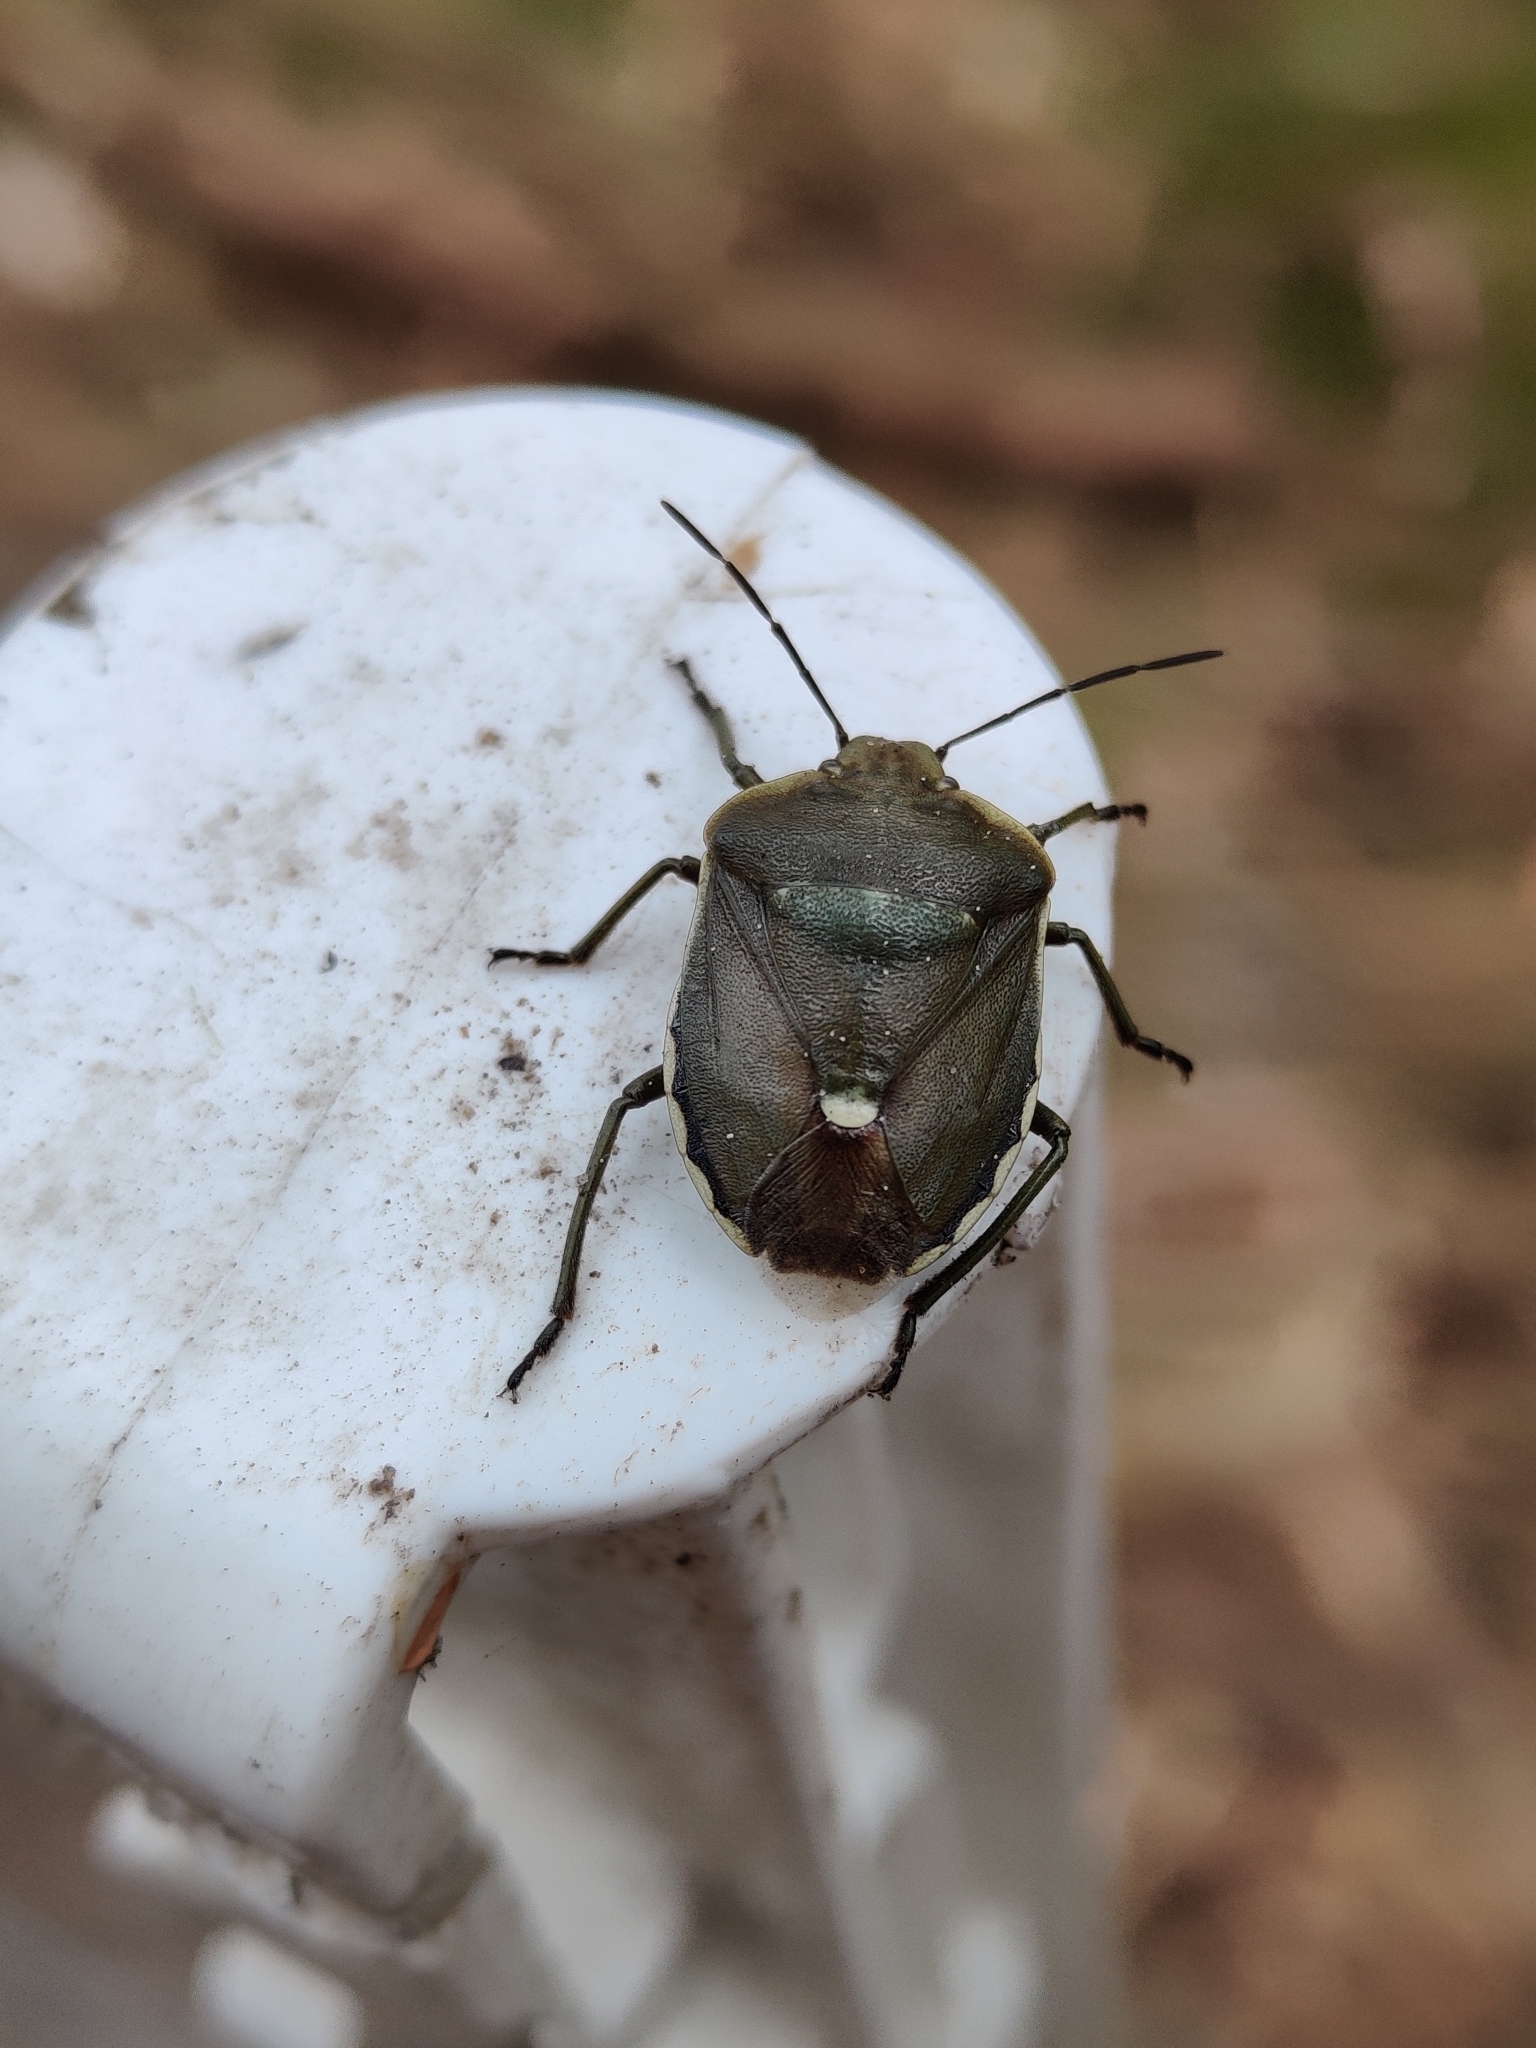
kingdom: Animalia
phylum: Arthropoda
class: Insecta
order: Hemiptera
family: Pentatomidae
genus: Chlorochroa
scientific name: Chlorochroa pinicola
